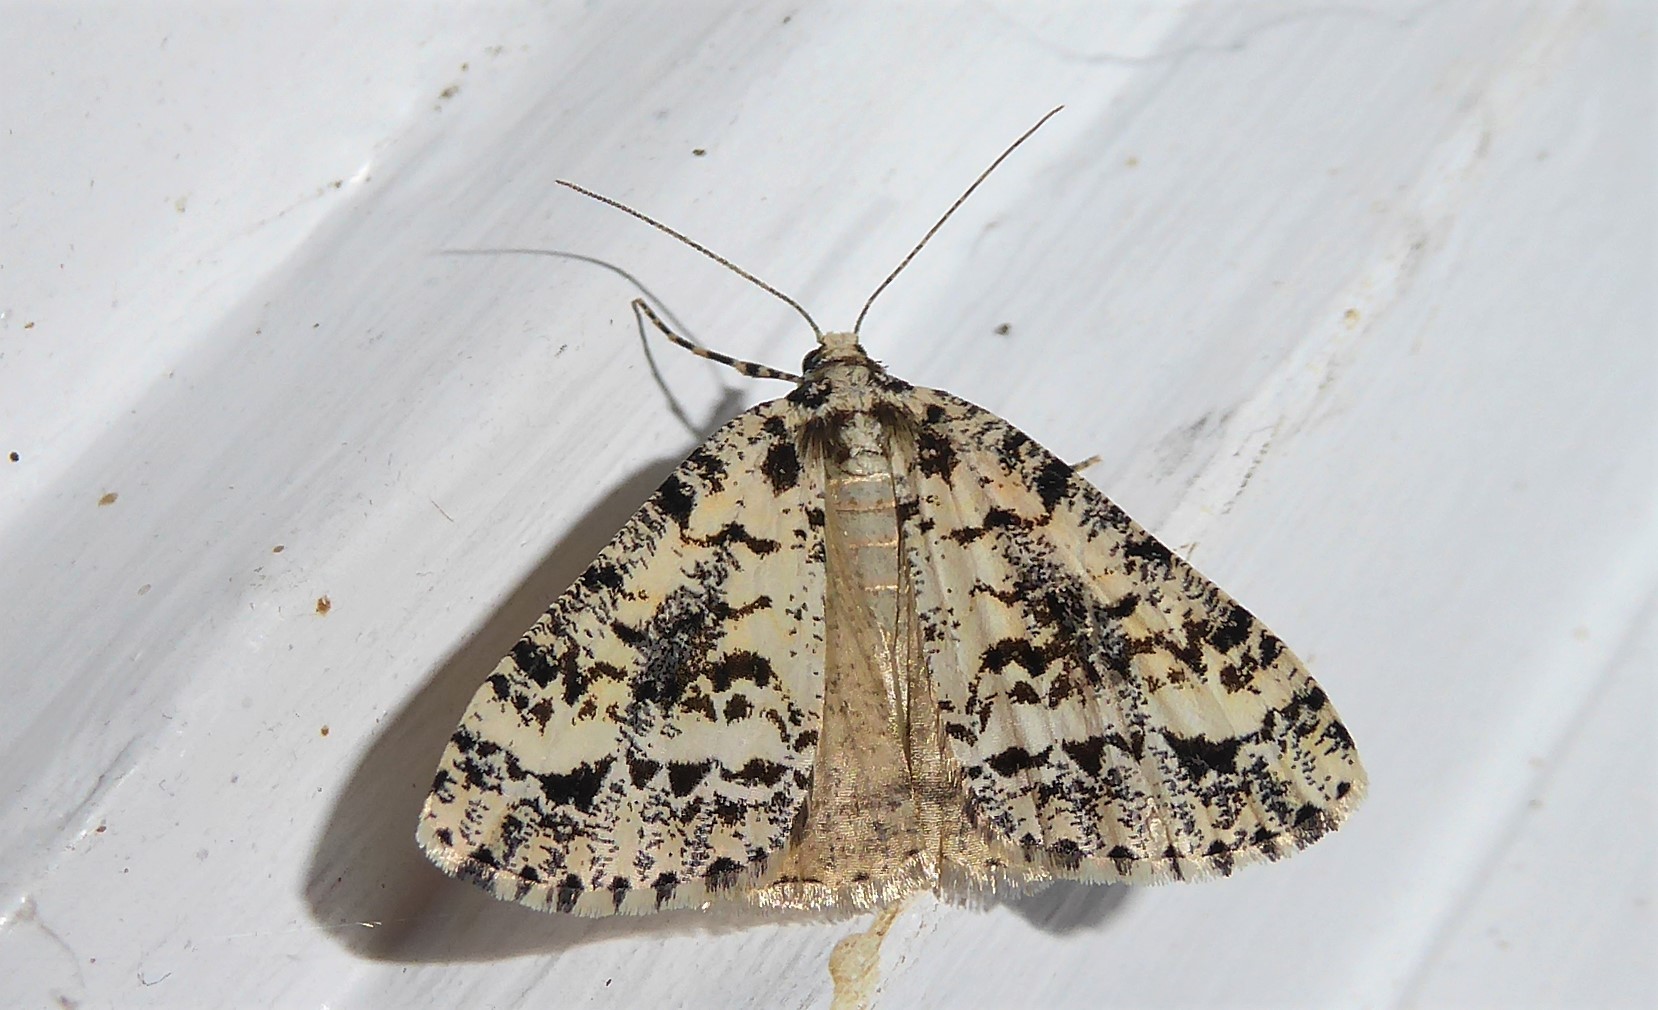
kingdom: Animalia
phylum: Arthropoda
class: Insecta
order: Lepidoptera
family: Geometridae
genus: Pseudocoremia
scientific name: Pseudocoremia leucelaea
